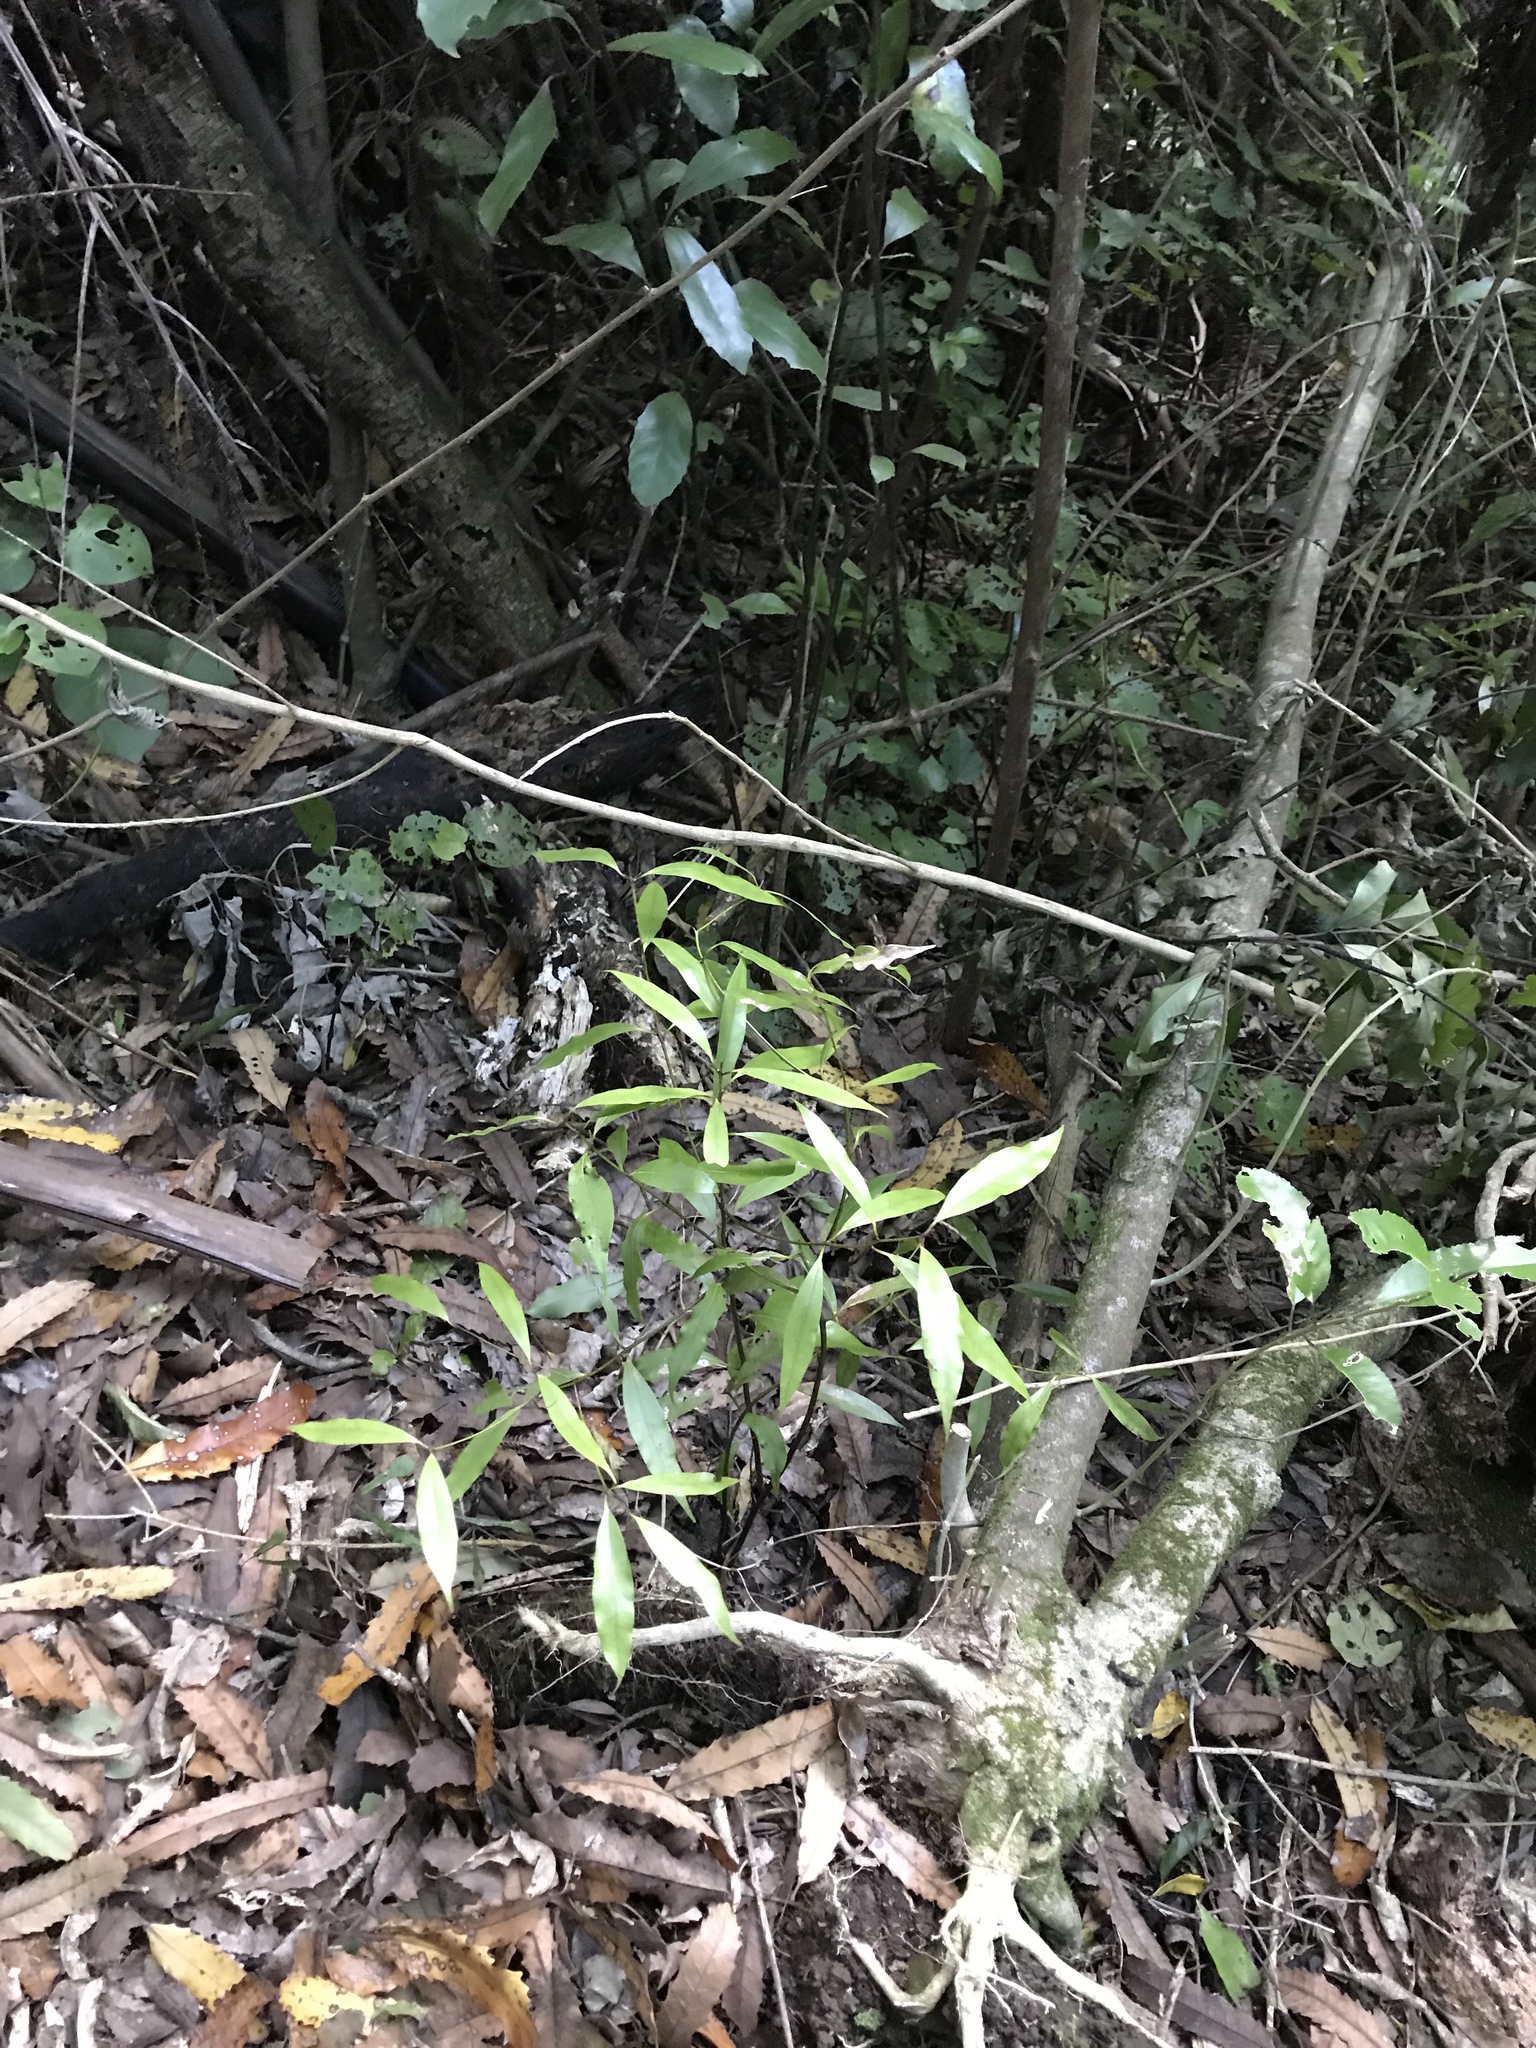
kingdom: Plantae
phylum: Tracheophyta
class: Magnoliopsida
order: Laurales
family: Lauraceae
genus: Beilschmiedia
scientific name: Beilschmiedia tawa
